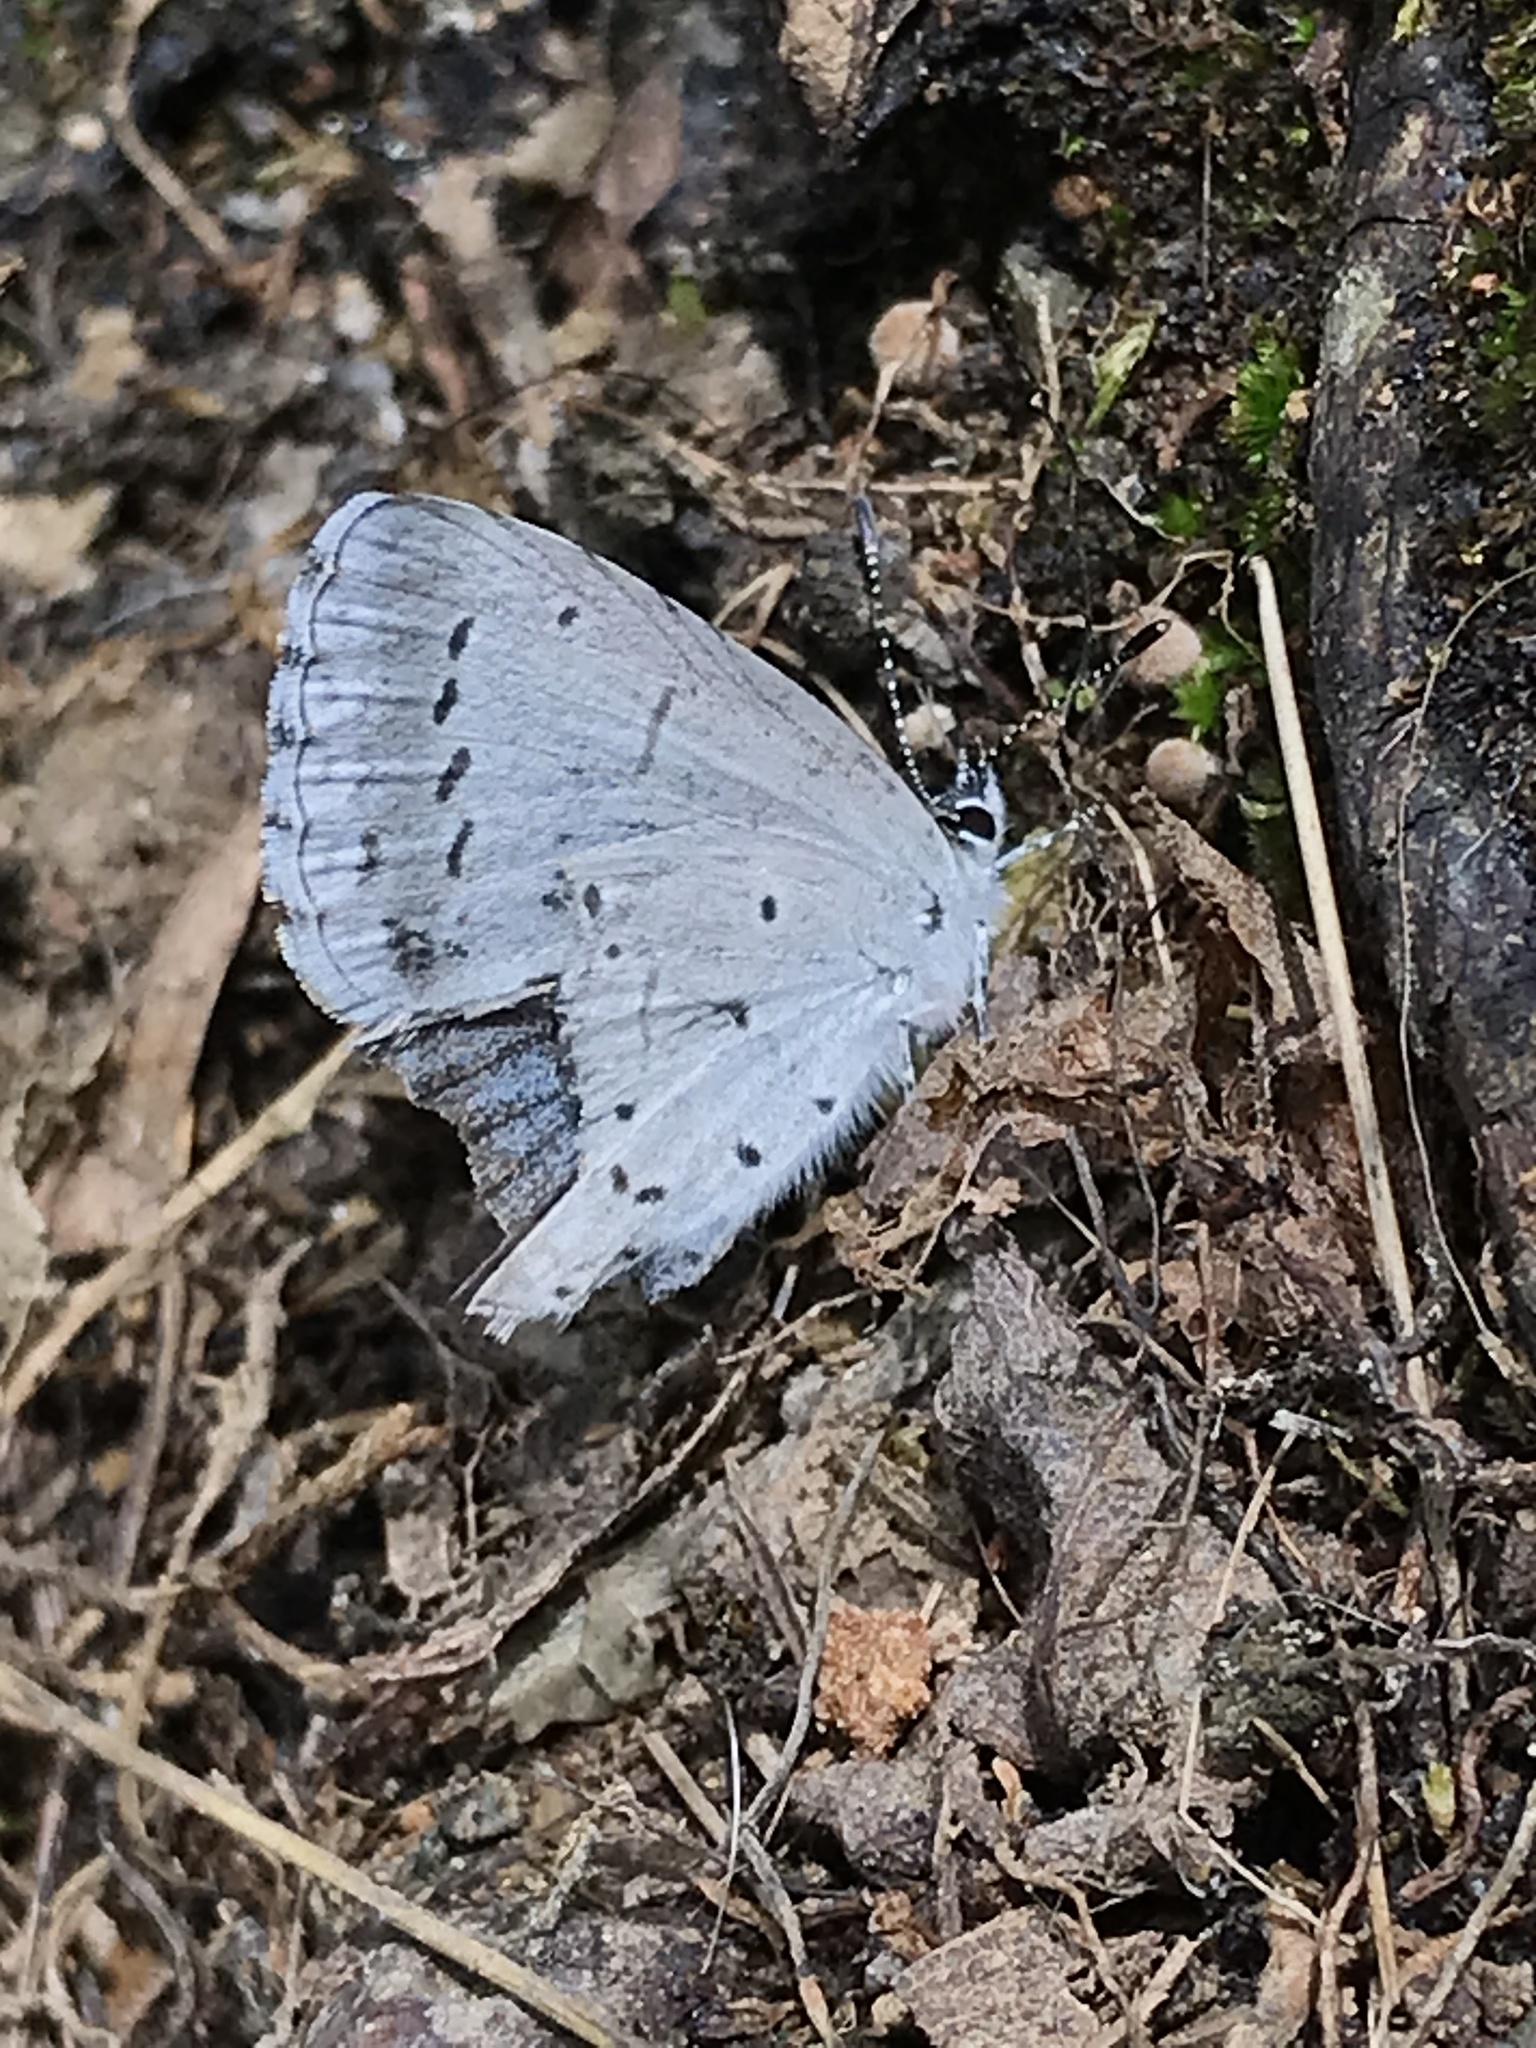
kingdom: Animalia
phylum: Arthropoda
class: Insecta
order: Lepidoptera
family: Lycaenidae
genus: Celastrina
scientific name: Celastrina ladon
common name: Spring azure
